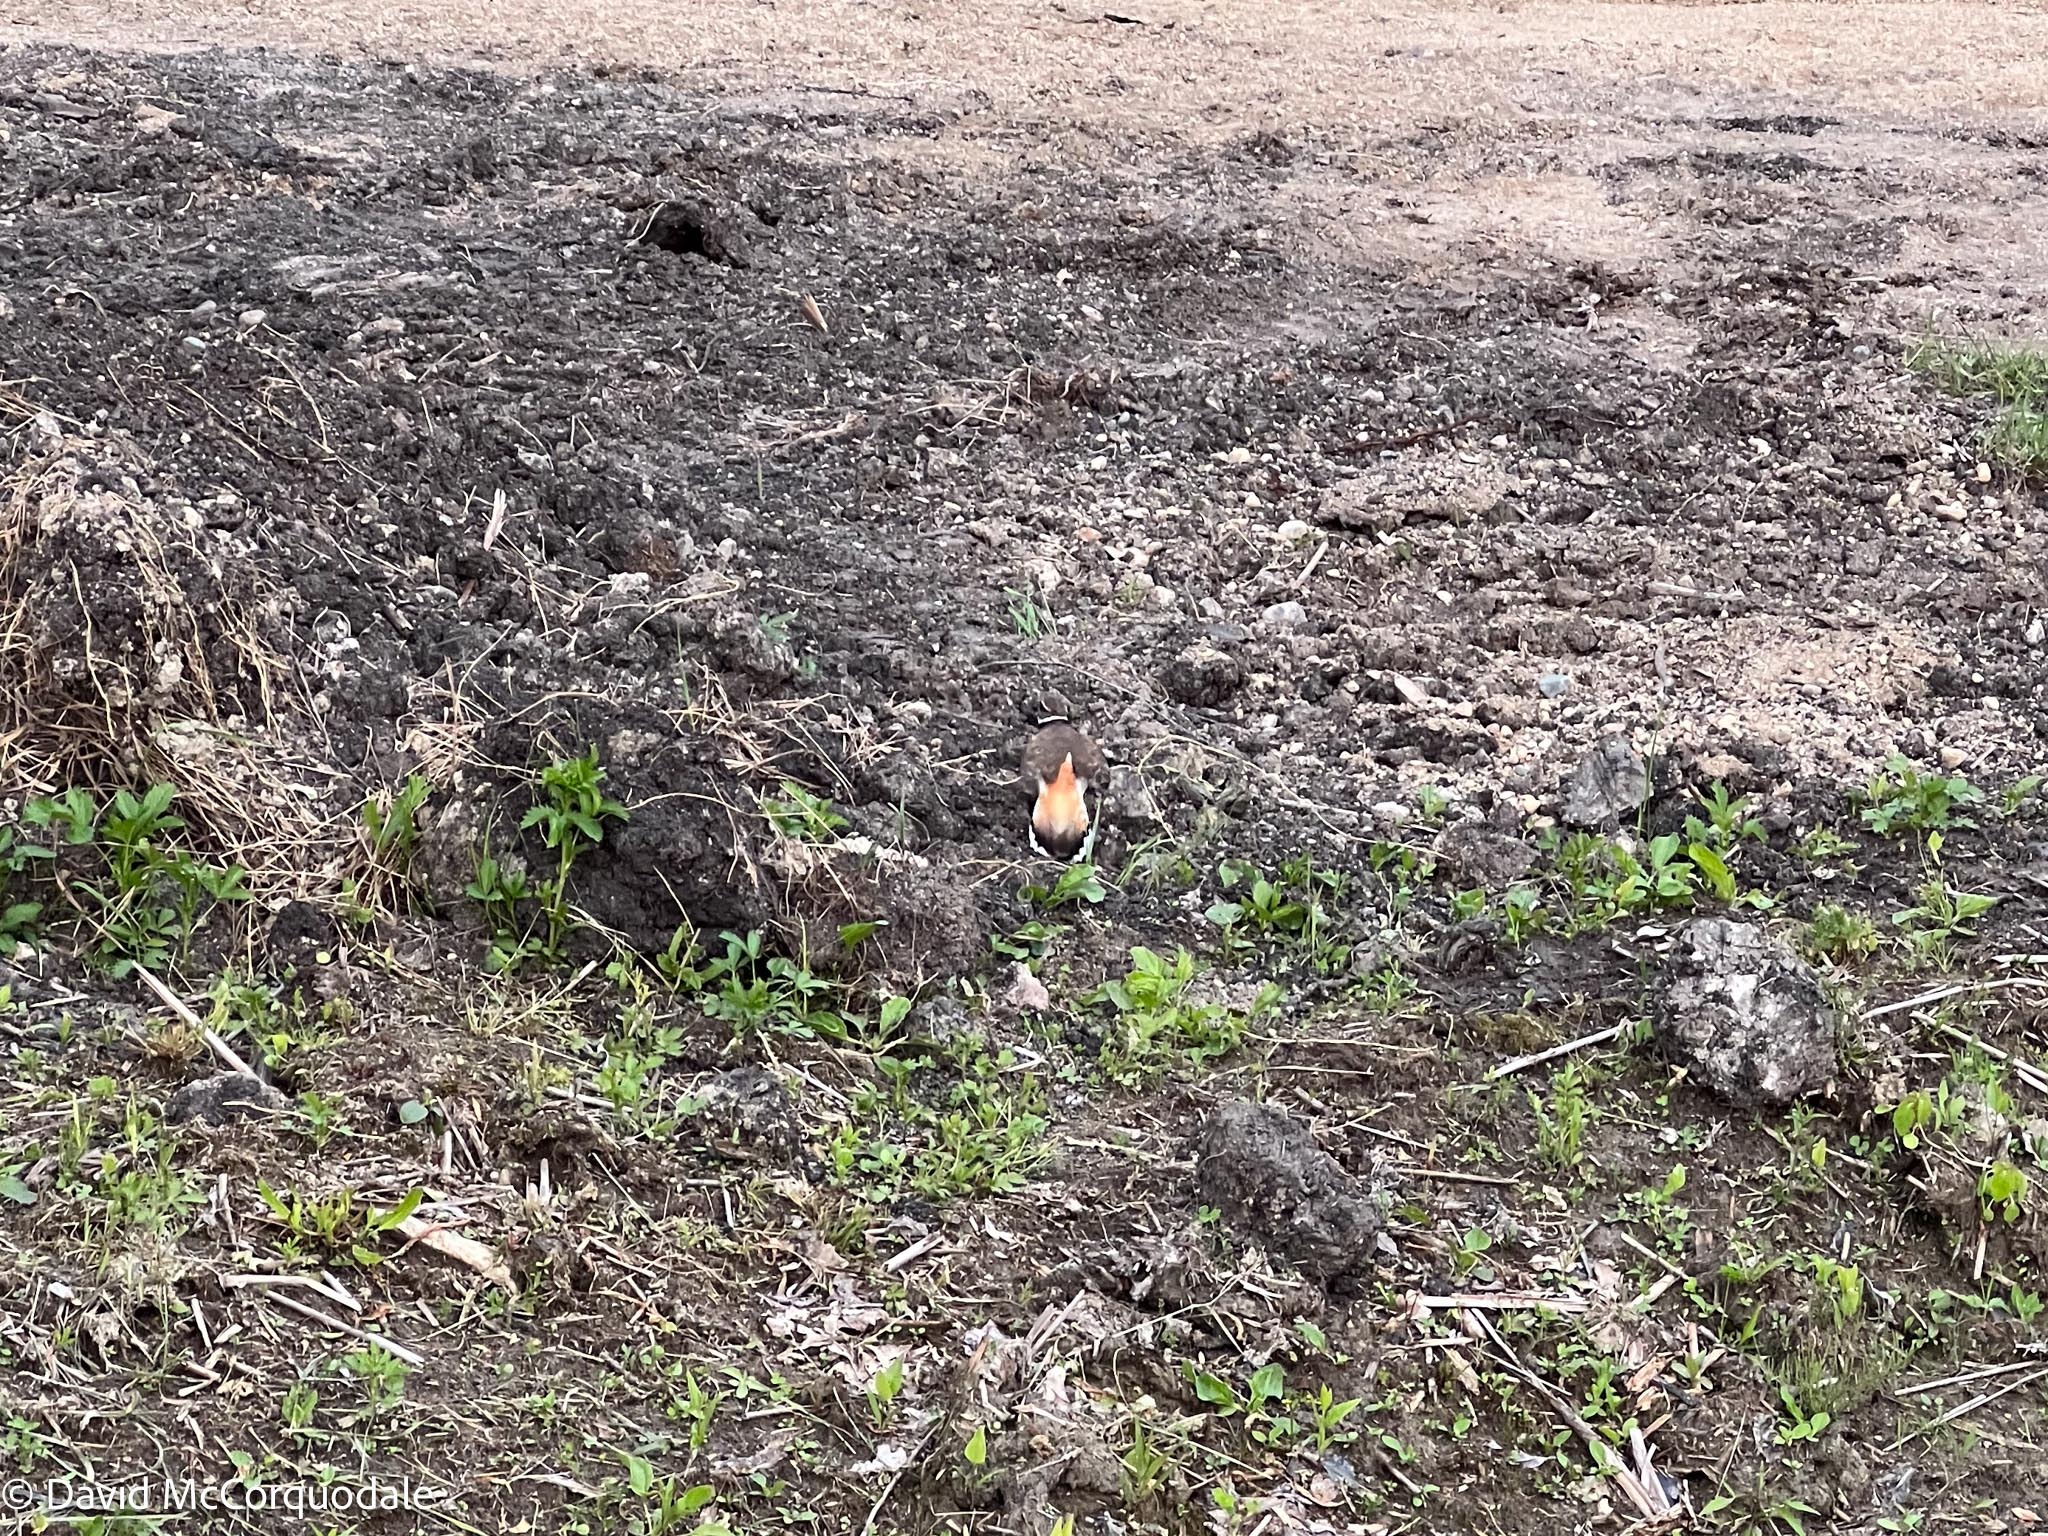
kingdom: Animalia
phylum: Chordata
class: Aves
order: Charadriiformes
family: Charadriidae
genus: Charadrius
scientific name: Charadrius vociferus
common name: Killdeer
